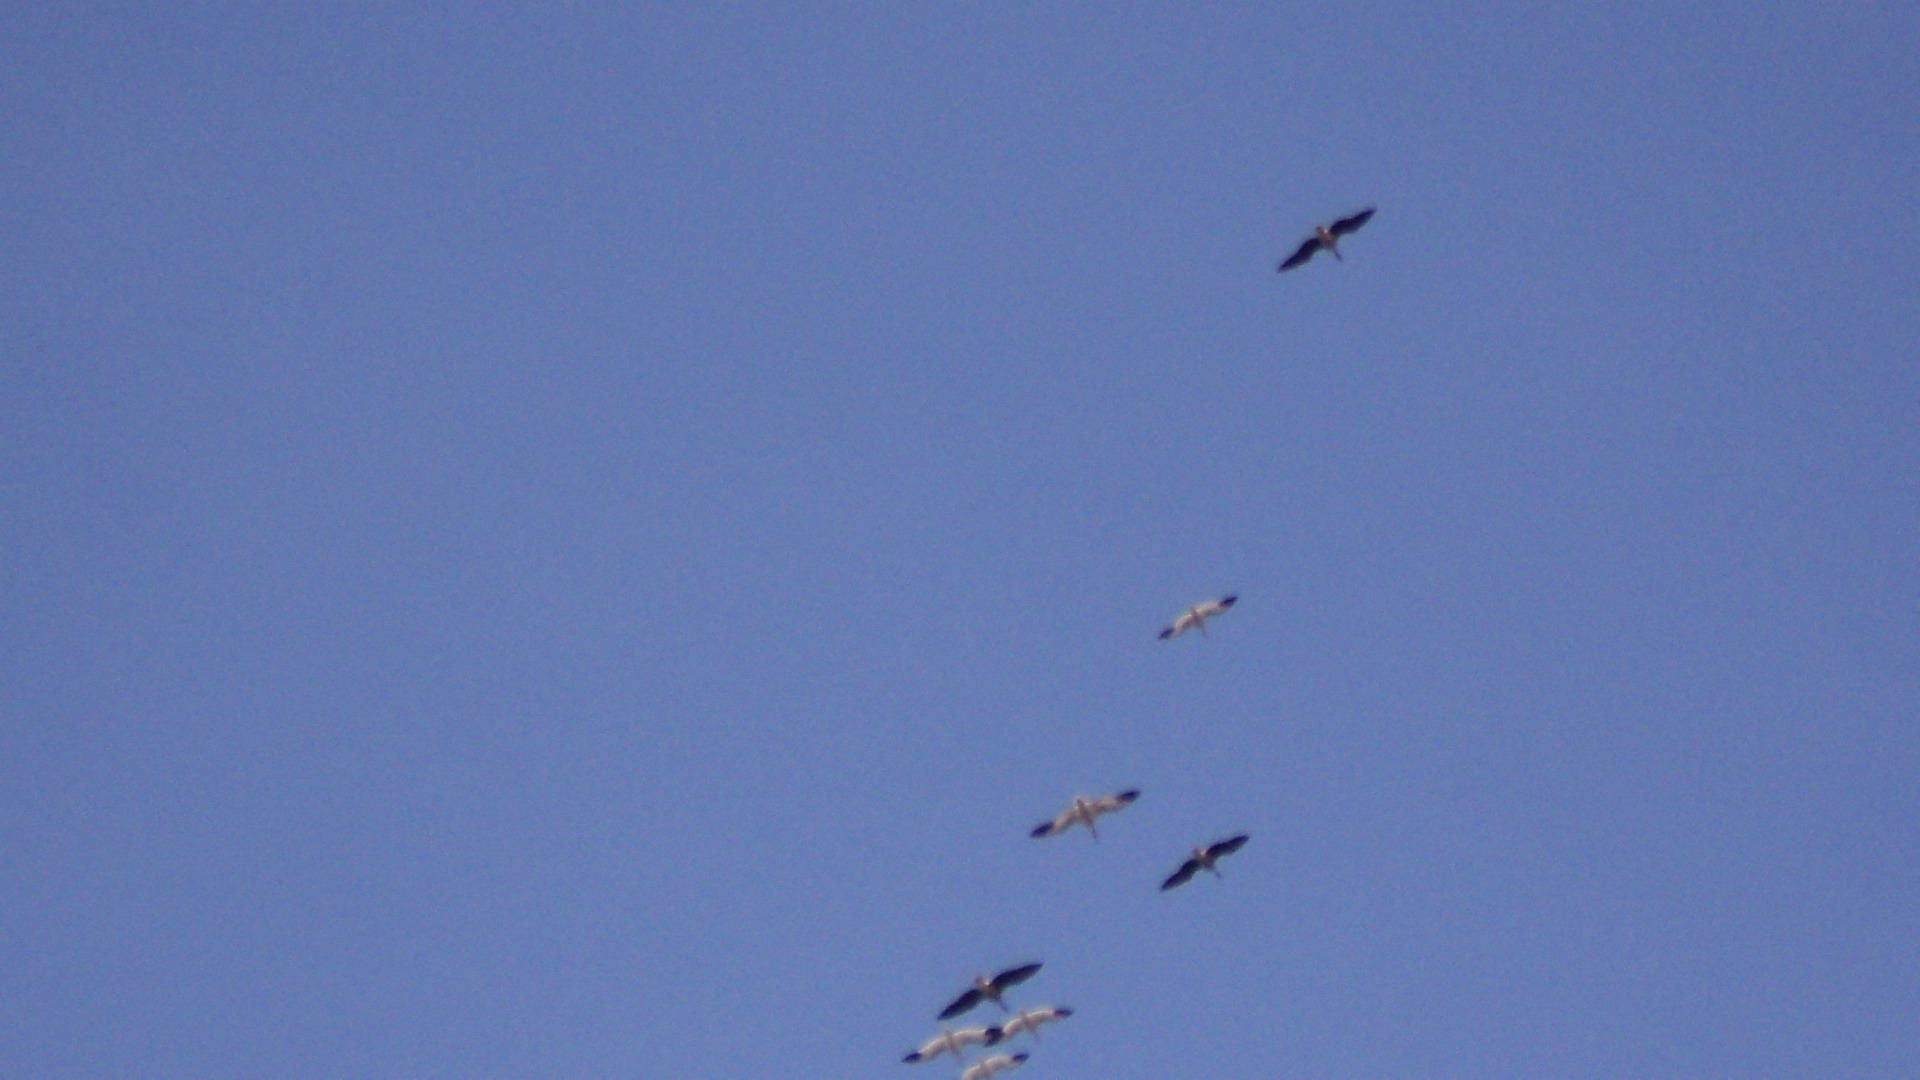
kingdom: Animalia
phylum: Chordata
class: Aves
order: Anseriformes
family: Anatidae
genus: Anser
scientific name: Anser caerulescens
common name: Snow goose
